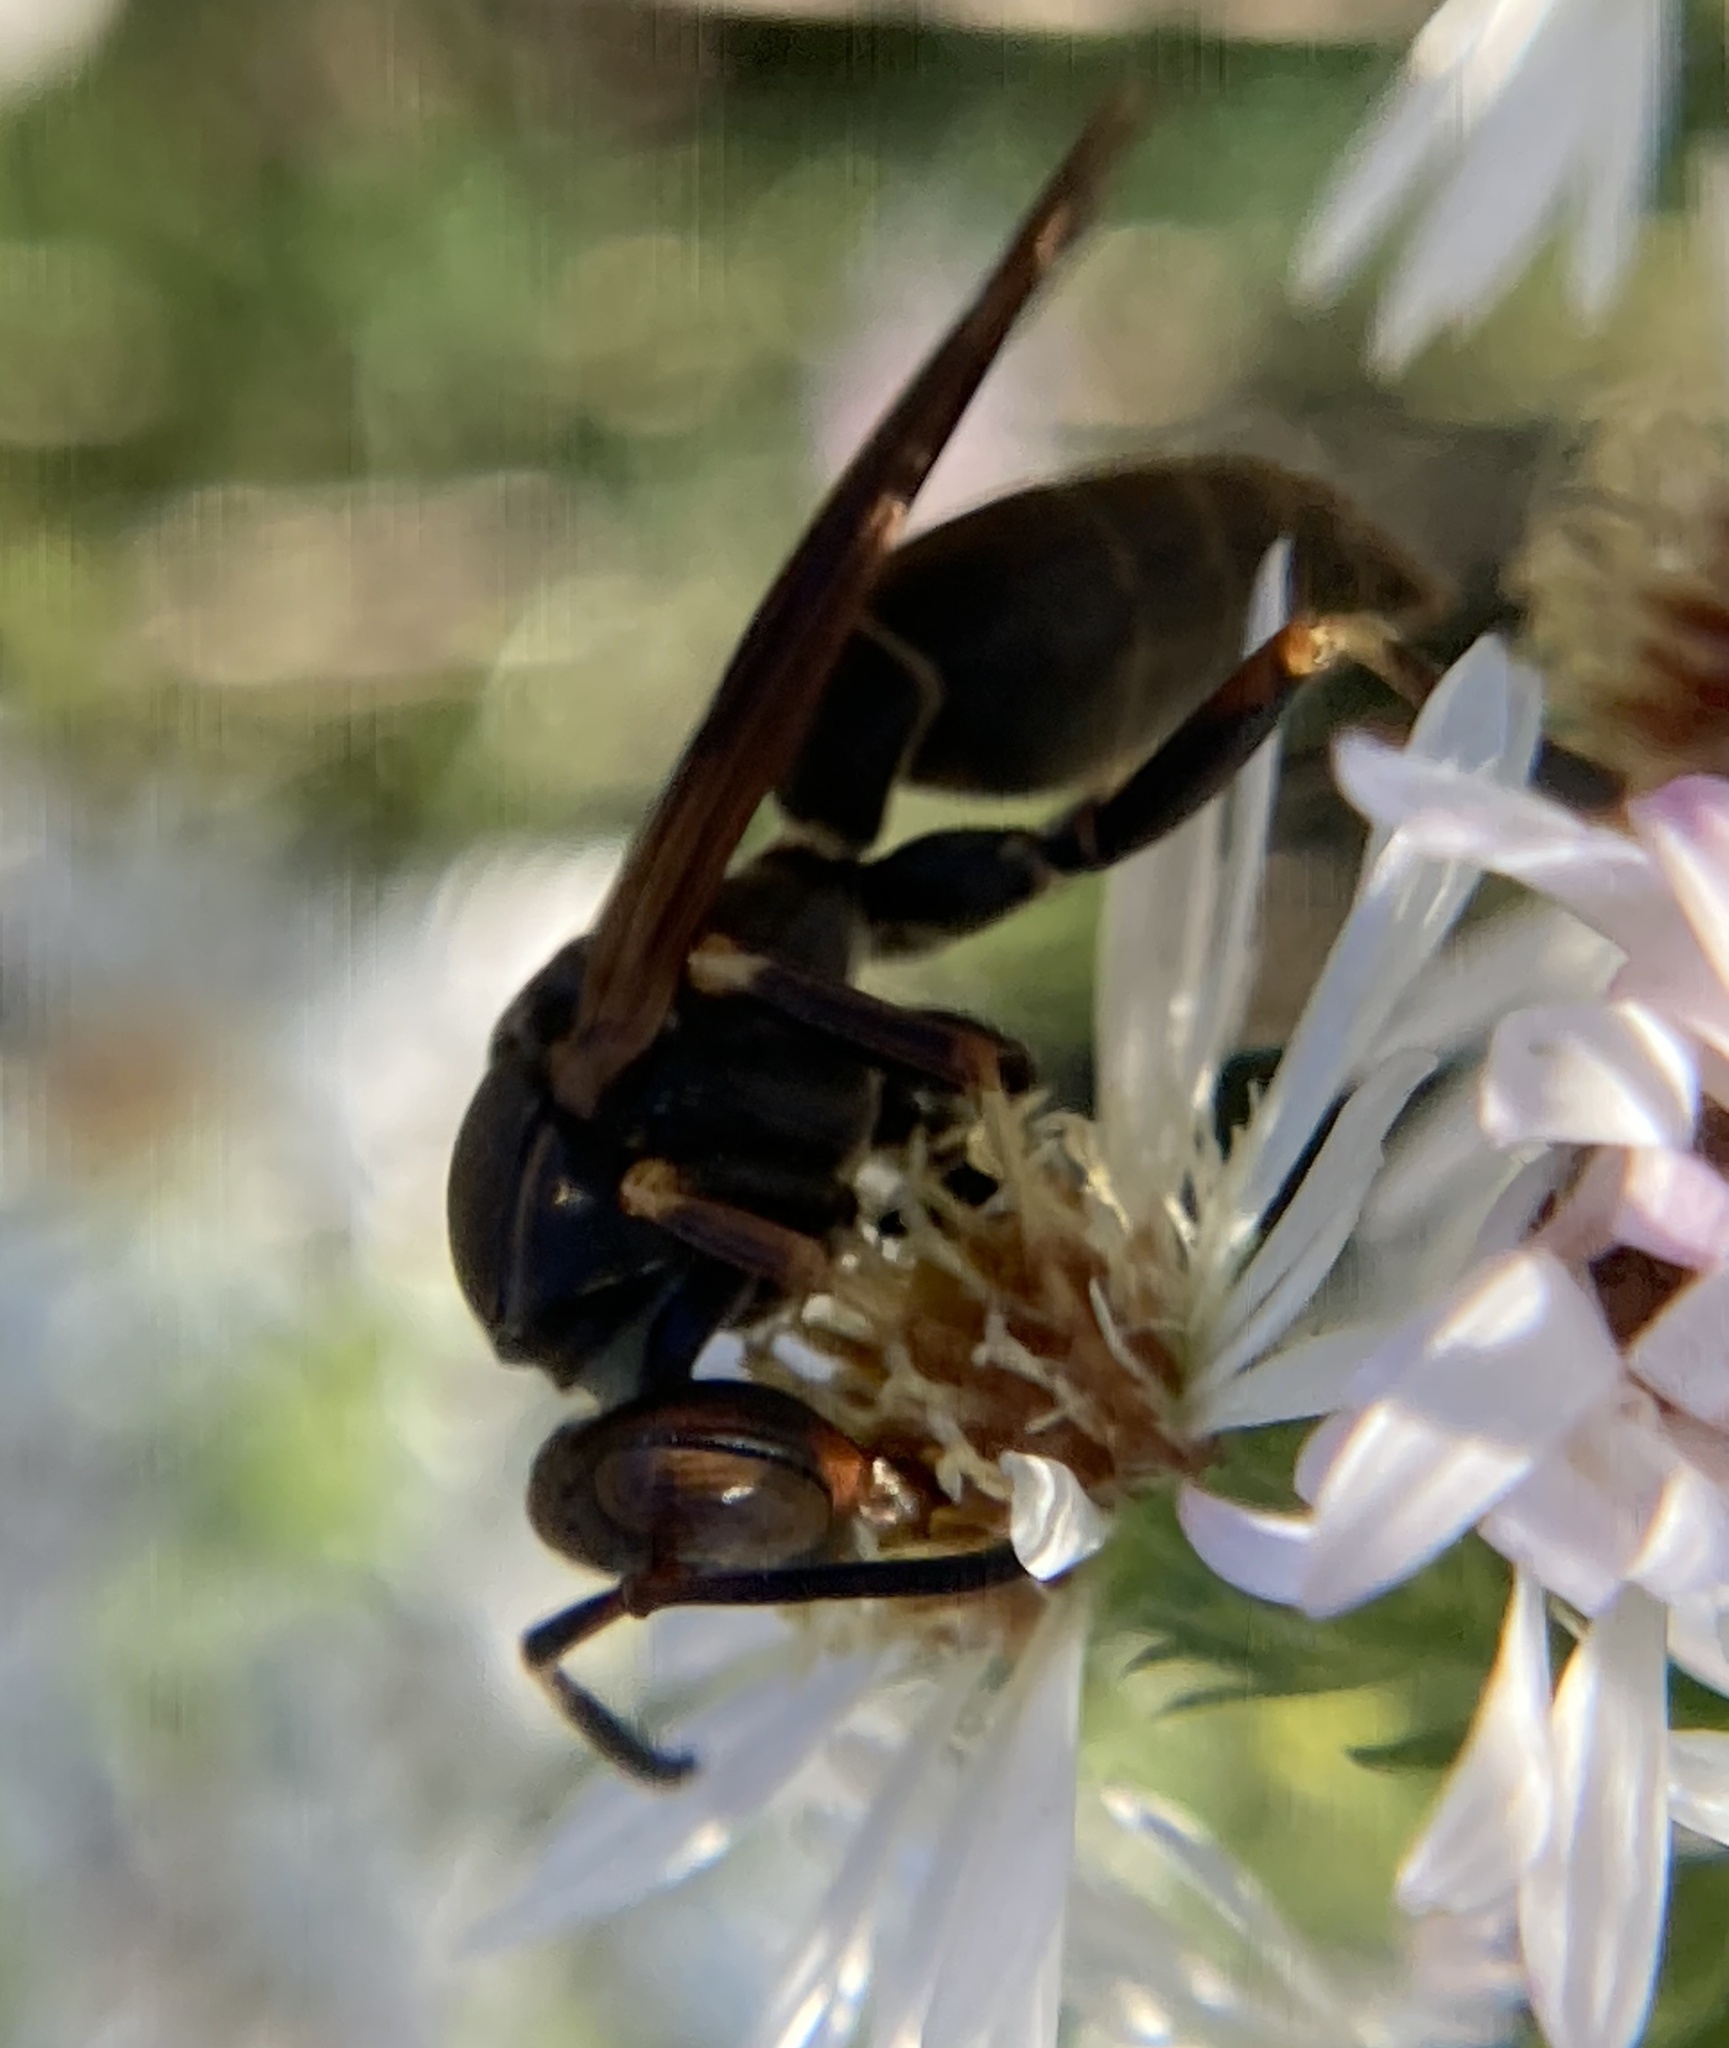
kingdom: Animalia
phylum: Arthropoda
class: Insecta
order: Hymenoptera
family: Eumenidae
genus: Polistes
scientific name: Polistes fuscatus
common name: Dark paper wasp
